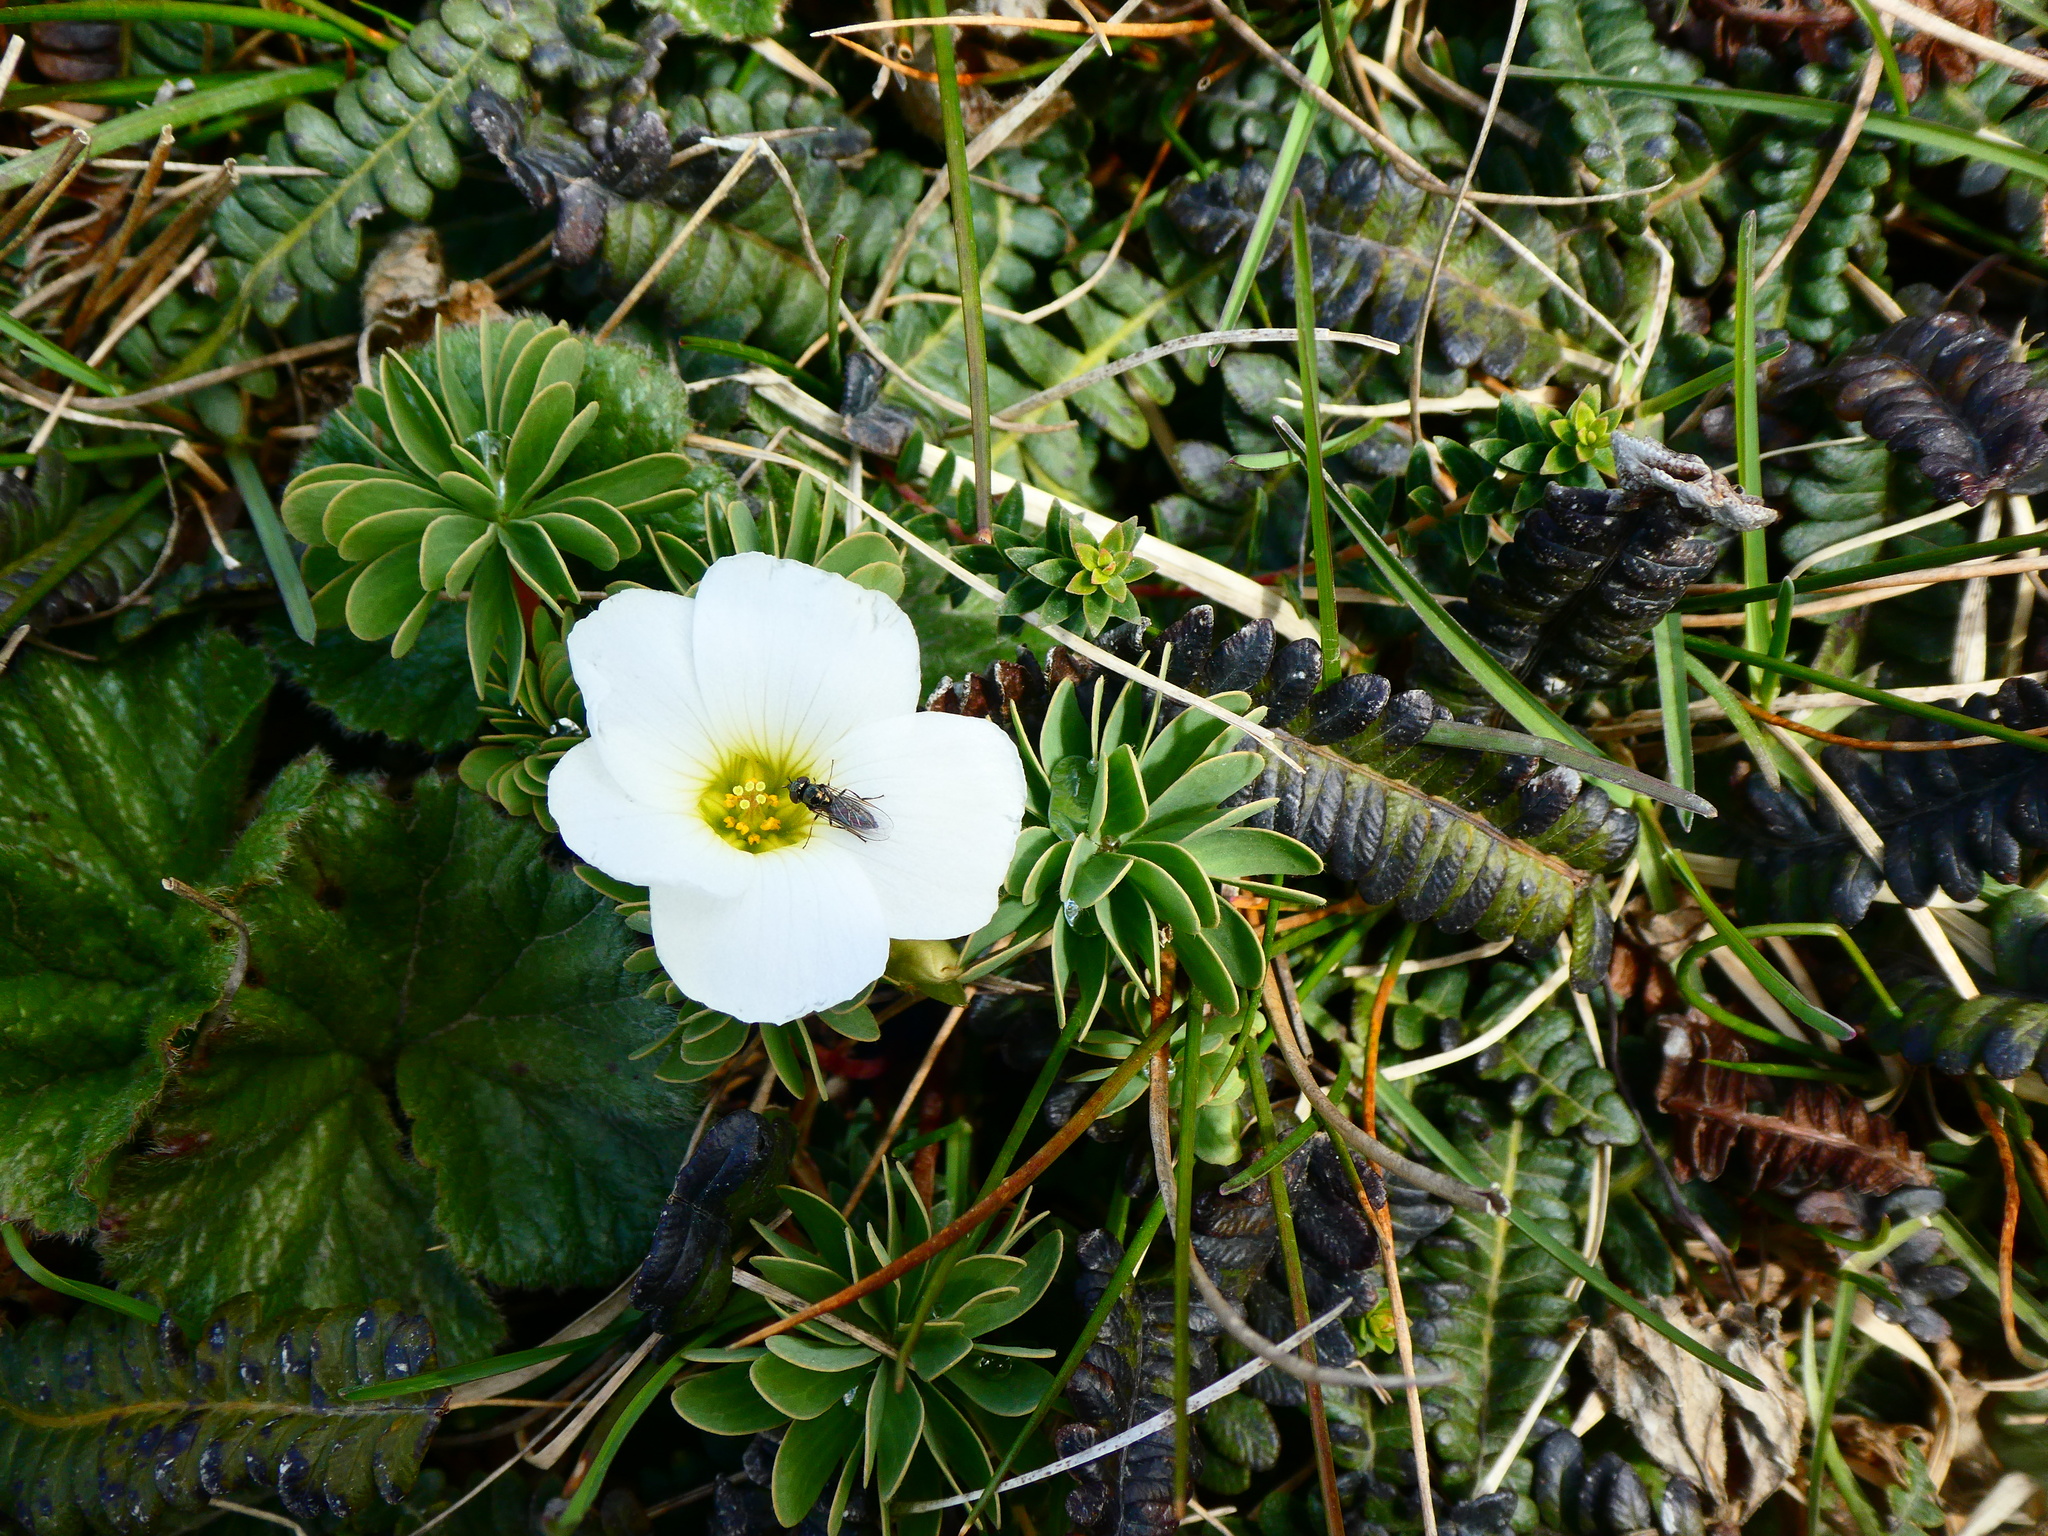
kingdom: Plantae
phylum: Tracheophyta
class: Magnoliopsida
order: Oxalidales
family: Oxalidaceae
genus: Oxalis
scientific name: Oxalis enneaphylla
